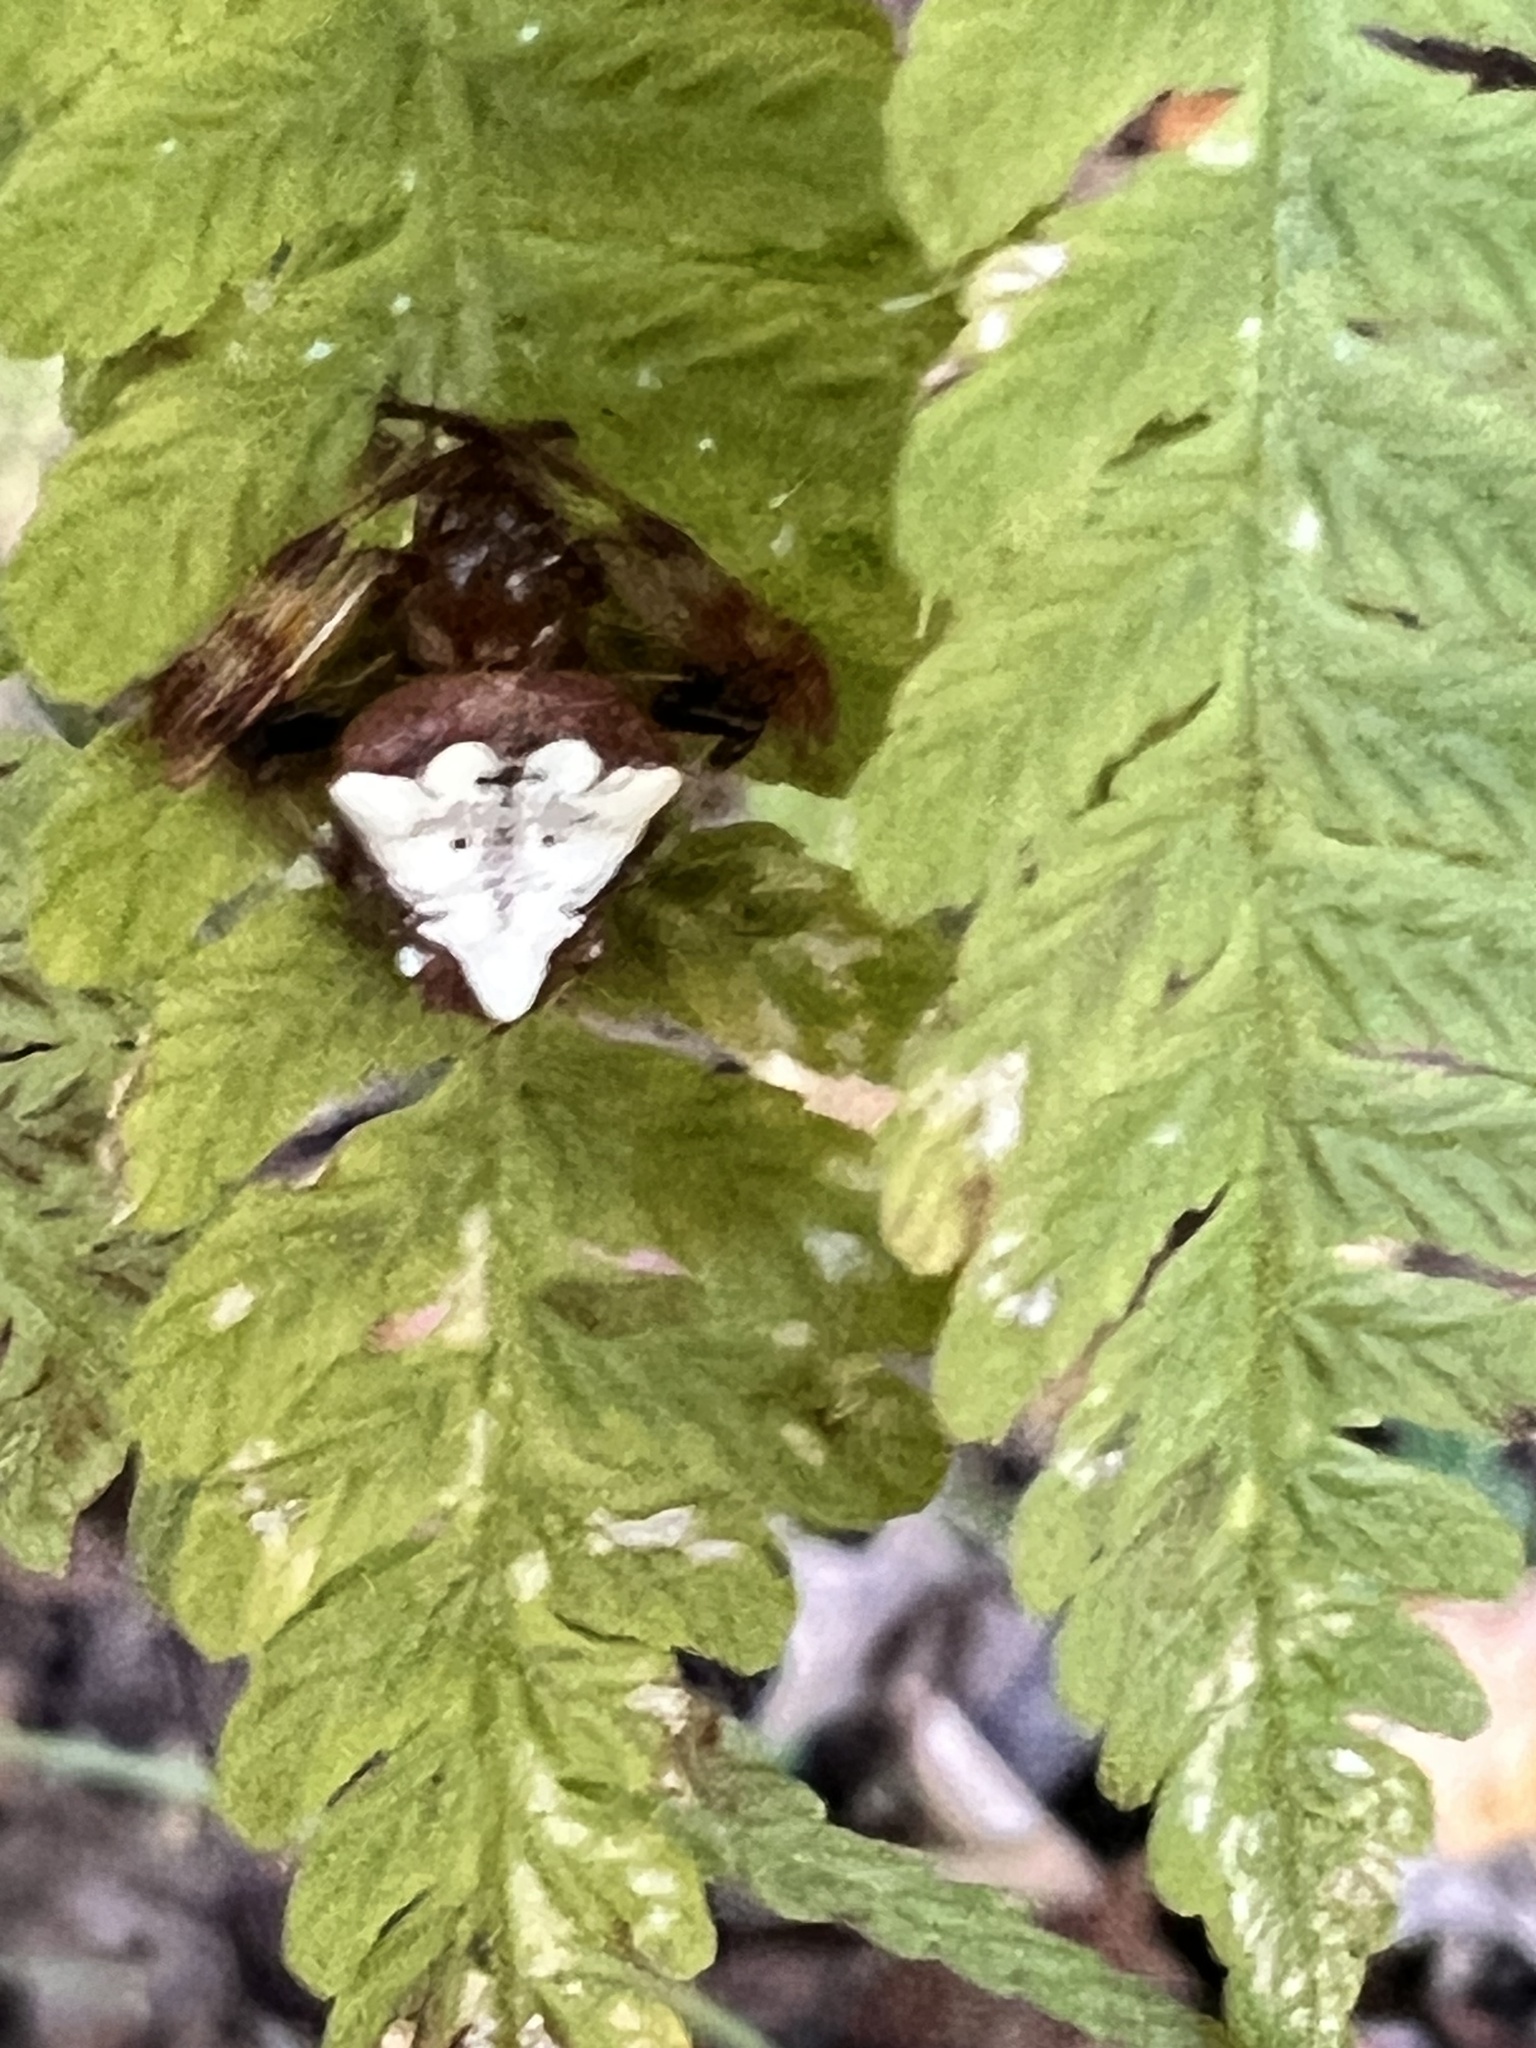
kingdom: Animalia
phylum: Arthropoda
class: Arachnida
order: Araneae
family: Araneidae
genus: Verrucosa
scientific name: Verrucosa arenata
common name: Orb weavers
